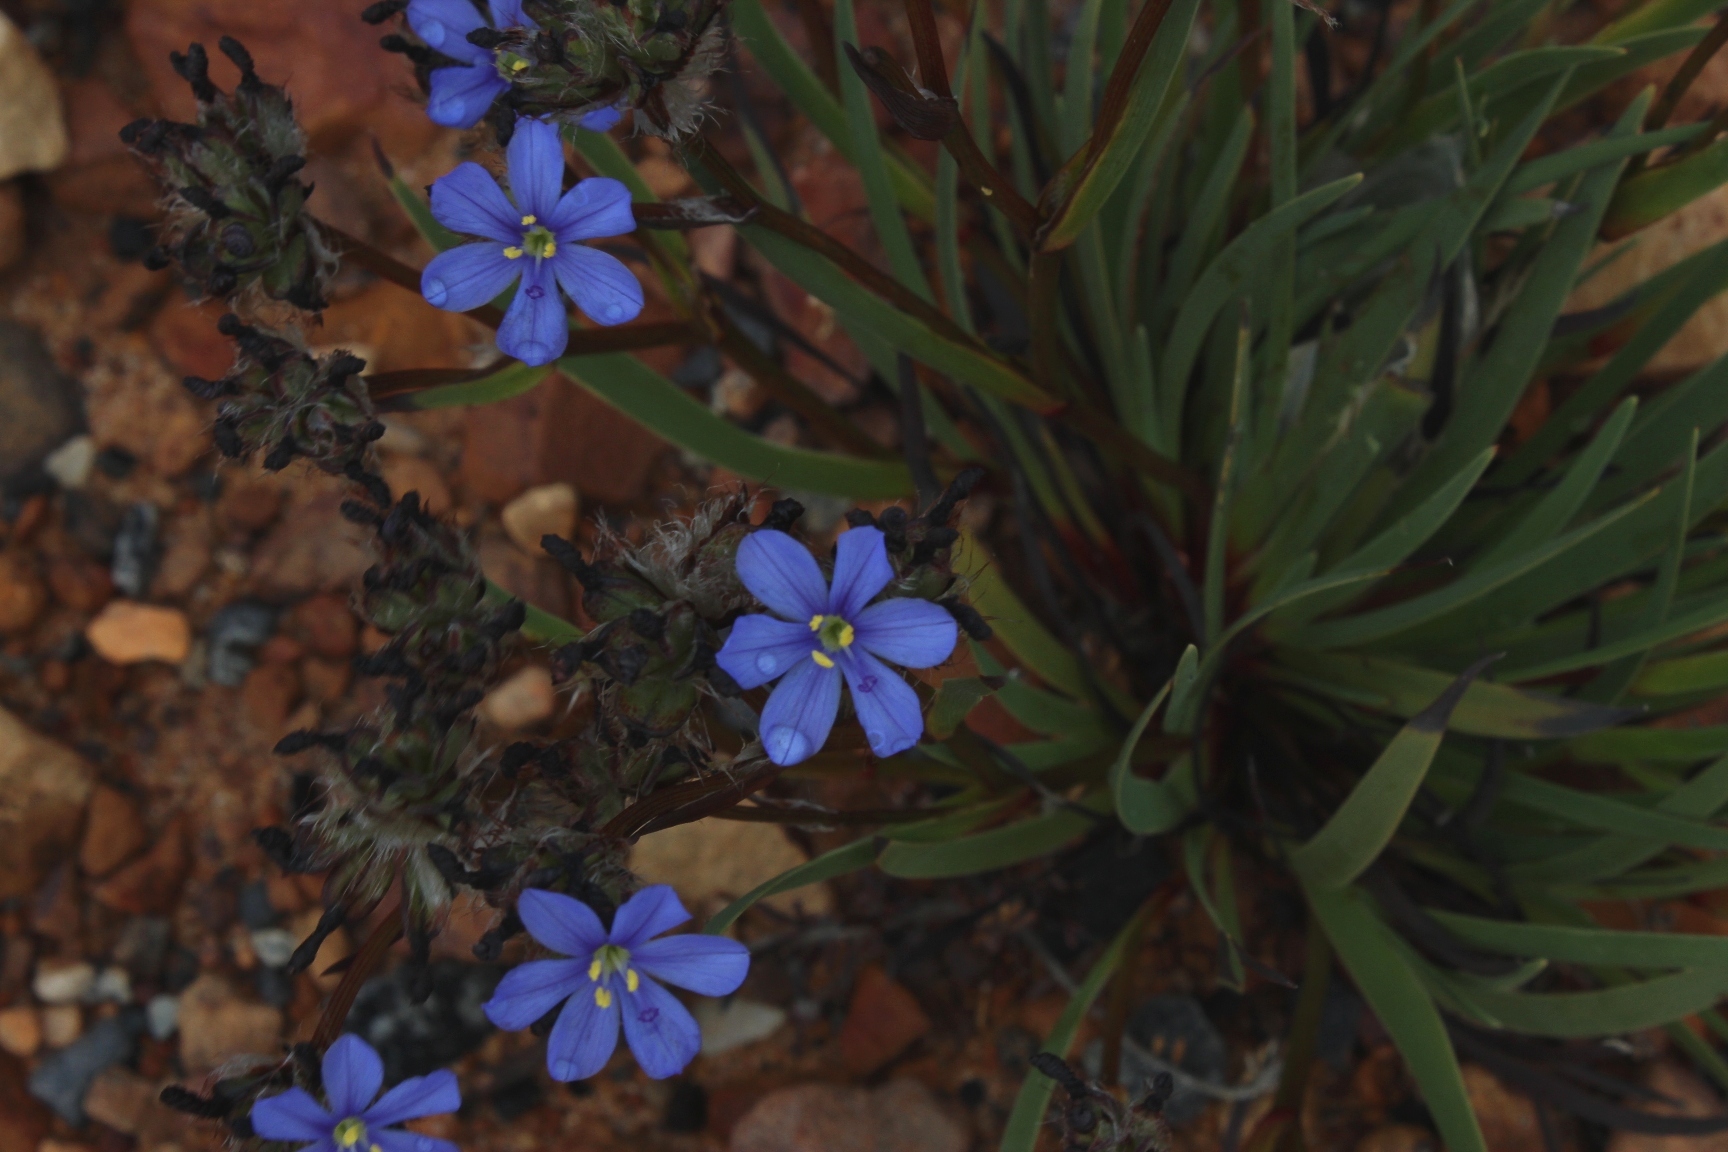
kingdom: Plantae
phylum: Tracheophyta
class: Liliopsida
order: Asparagales
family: Iridaceae
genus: Aristea
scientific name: Aristea africana
